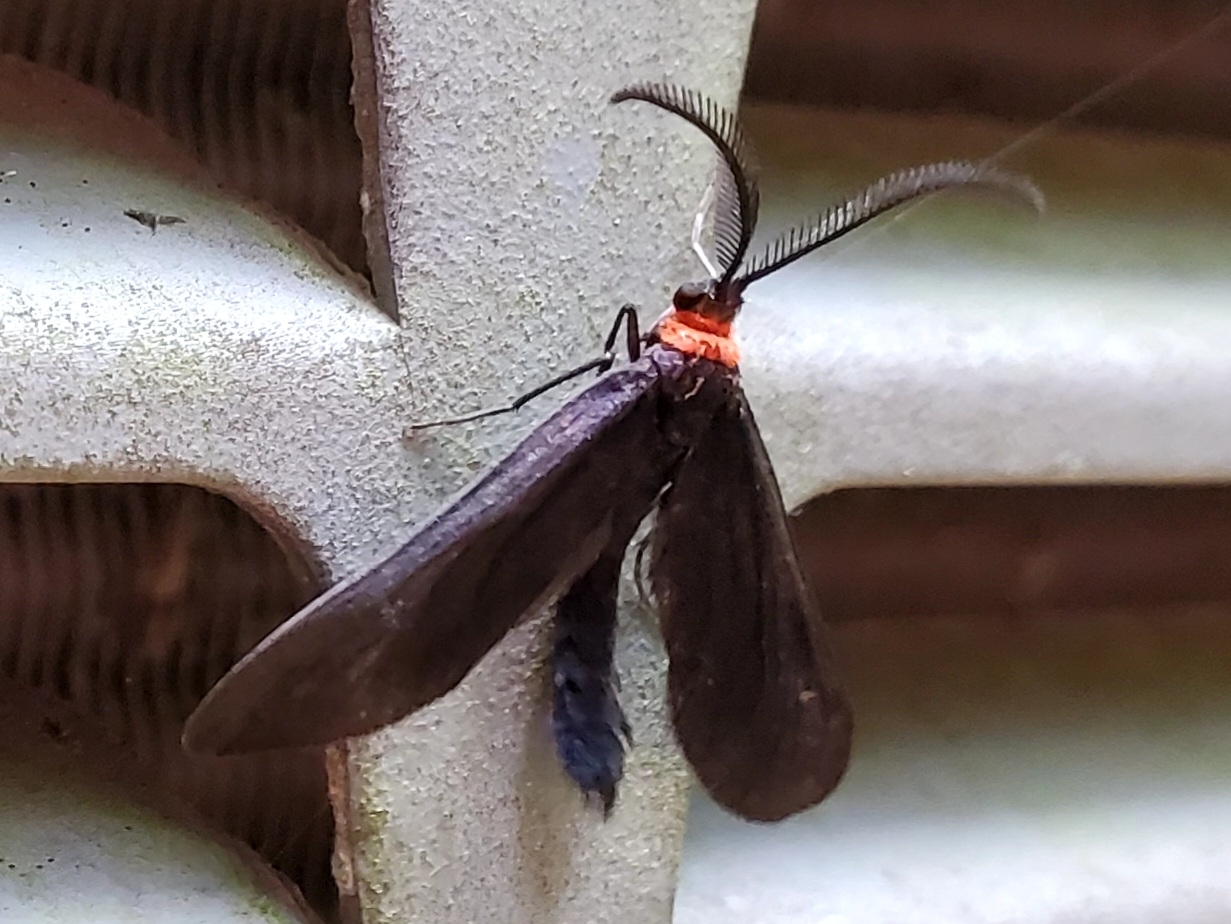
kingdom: Animalia
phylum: Arthropoda
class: Insecta
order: Lepidoptera
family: Zygaenidae
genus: Harrisina
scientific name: Harrisina americana
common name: Grapeleaf skeletonizer moth
